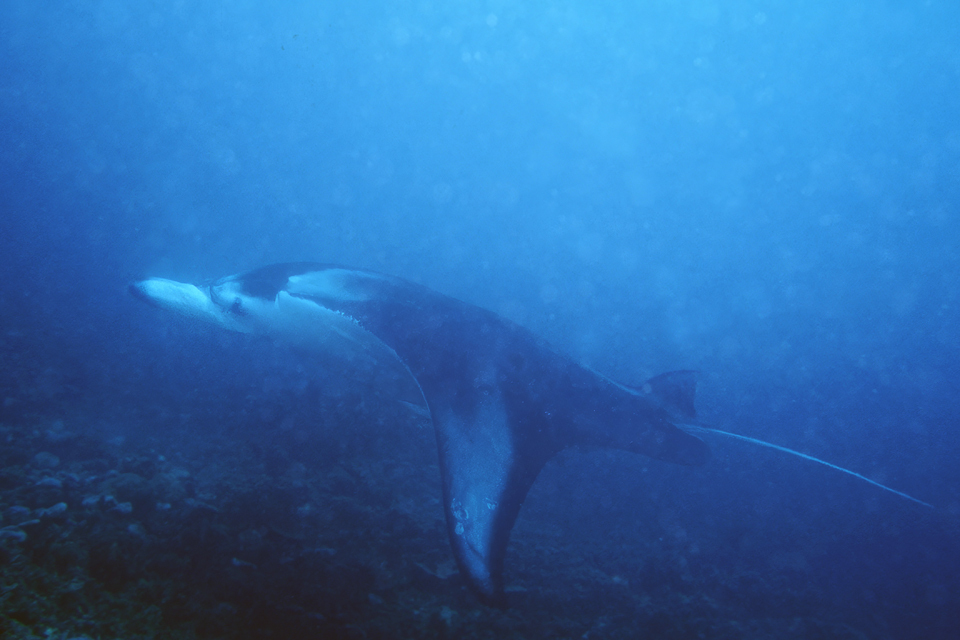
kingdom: Animalia
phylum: Chordata
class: Elasmobranchii
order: Myliobatiformes
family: Myliobatidae
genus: Mobula
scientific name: Mobula alfredi
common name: Reef manta ray
